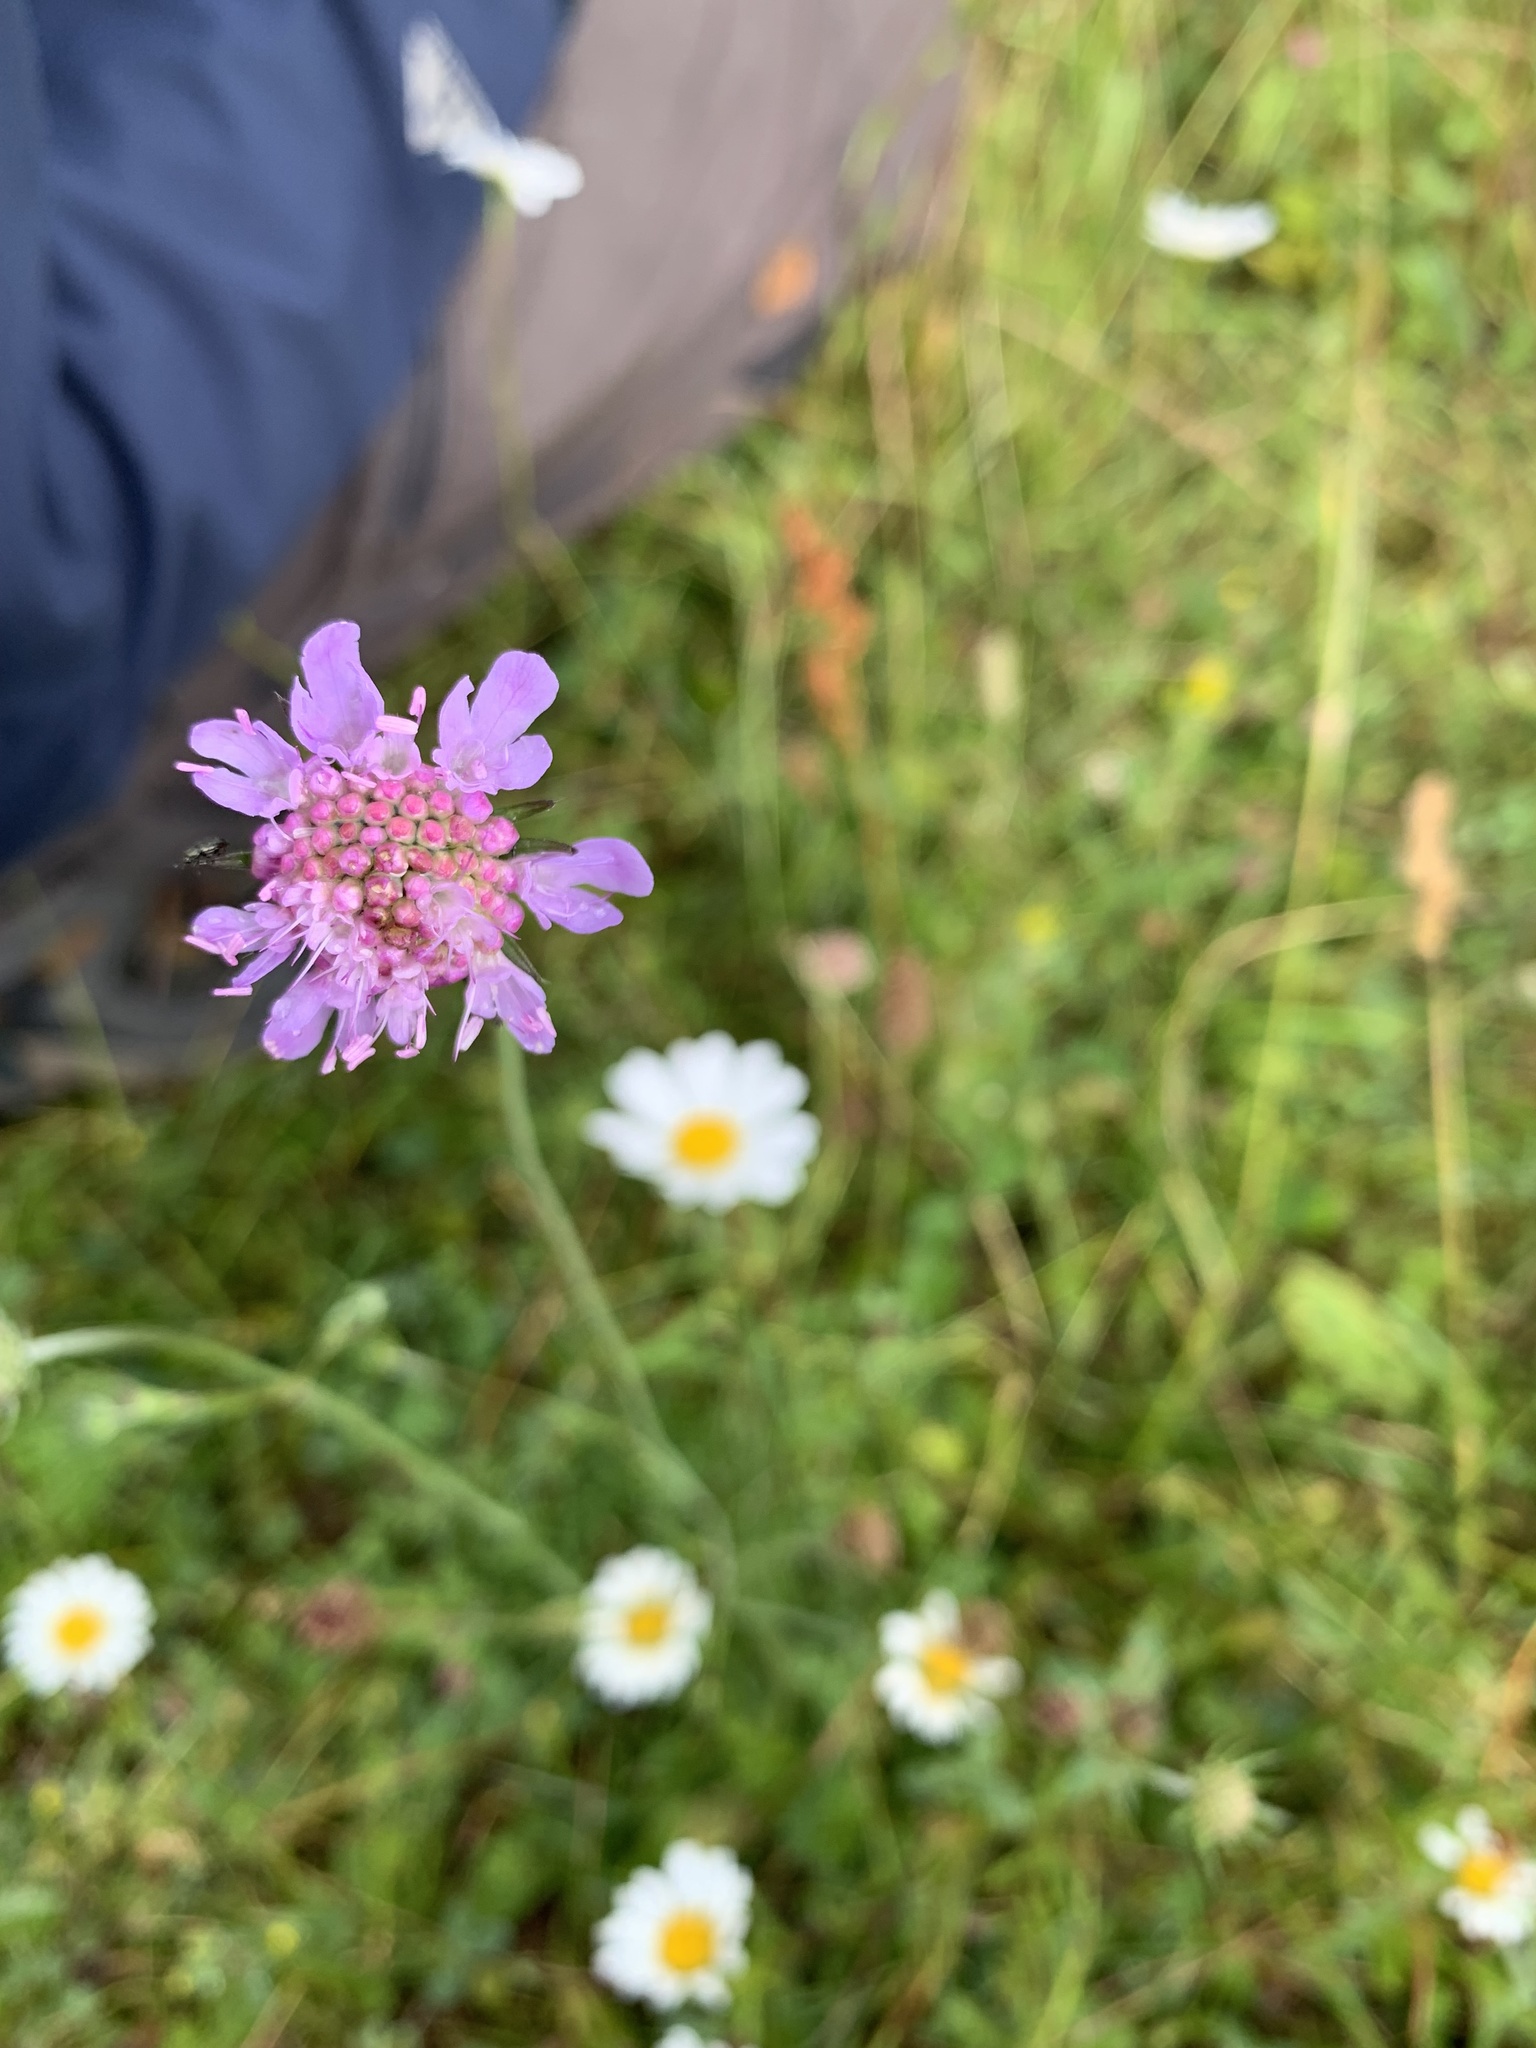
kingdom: Plantae
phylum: Tracheophyta
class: Magnoliopsida
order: Dipsacales
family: Caprifoliaceae
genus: Scabiosa
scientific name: Scabiosa columbaria
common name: Small scabious
